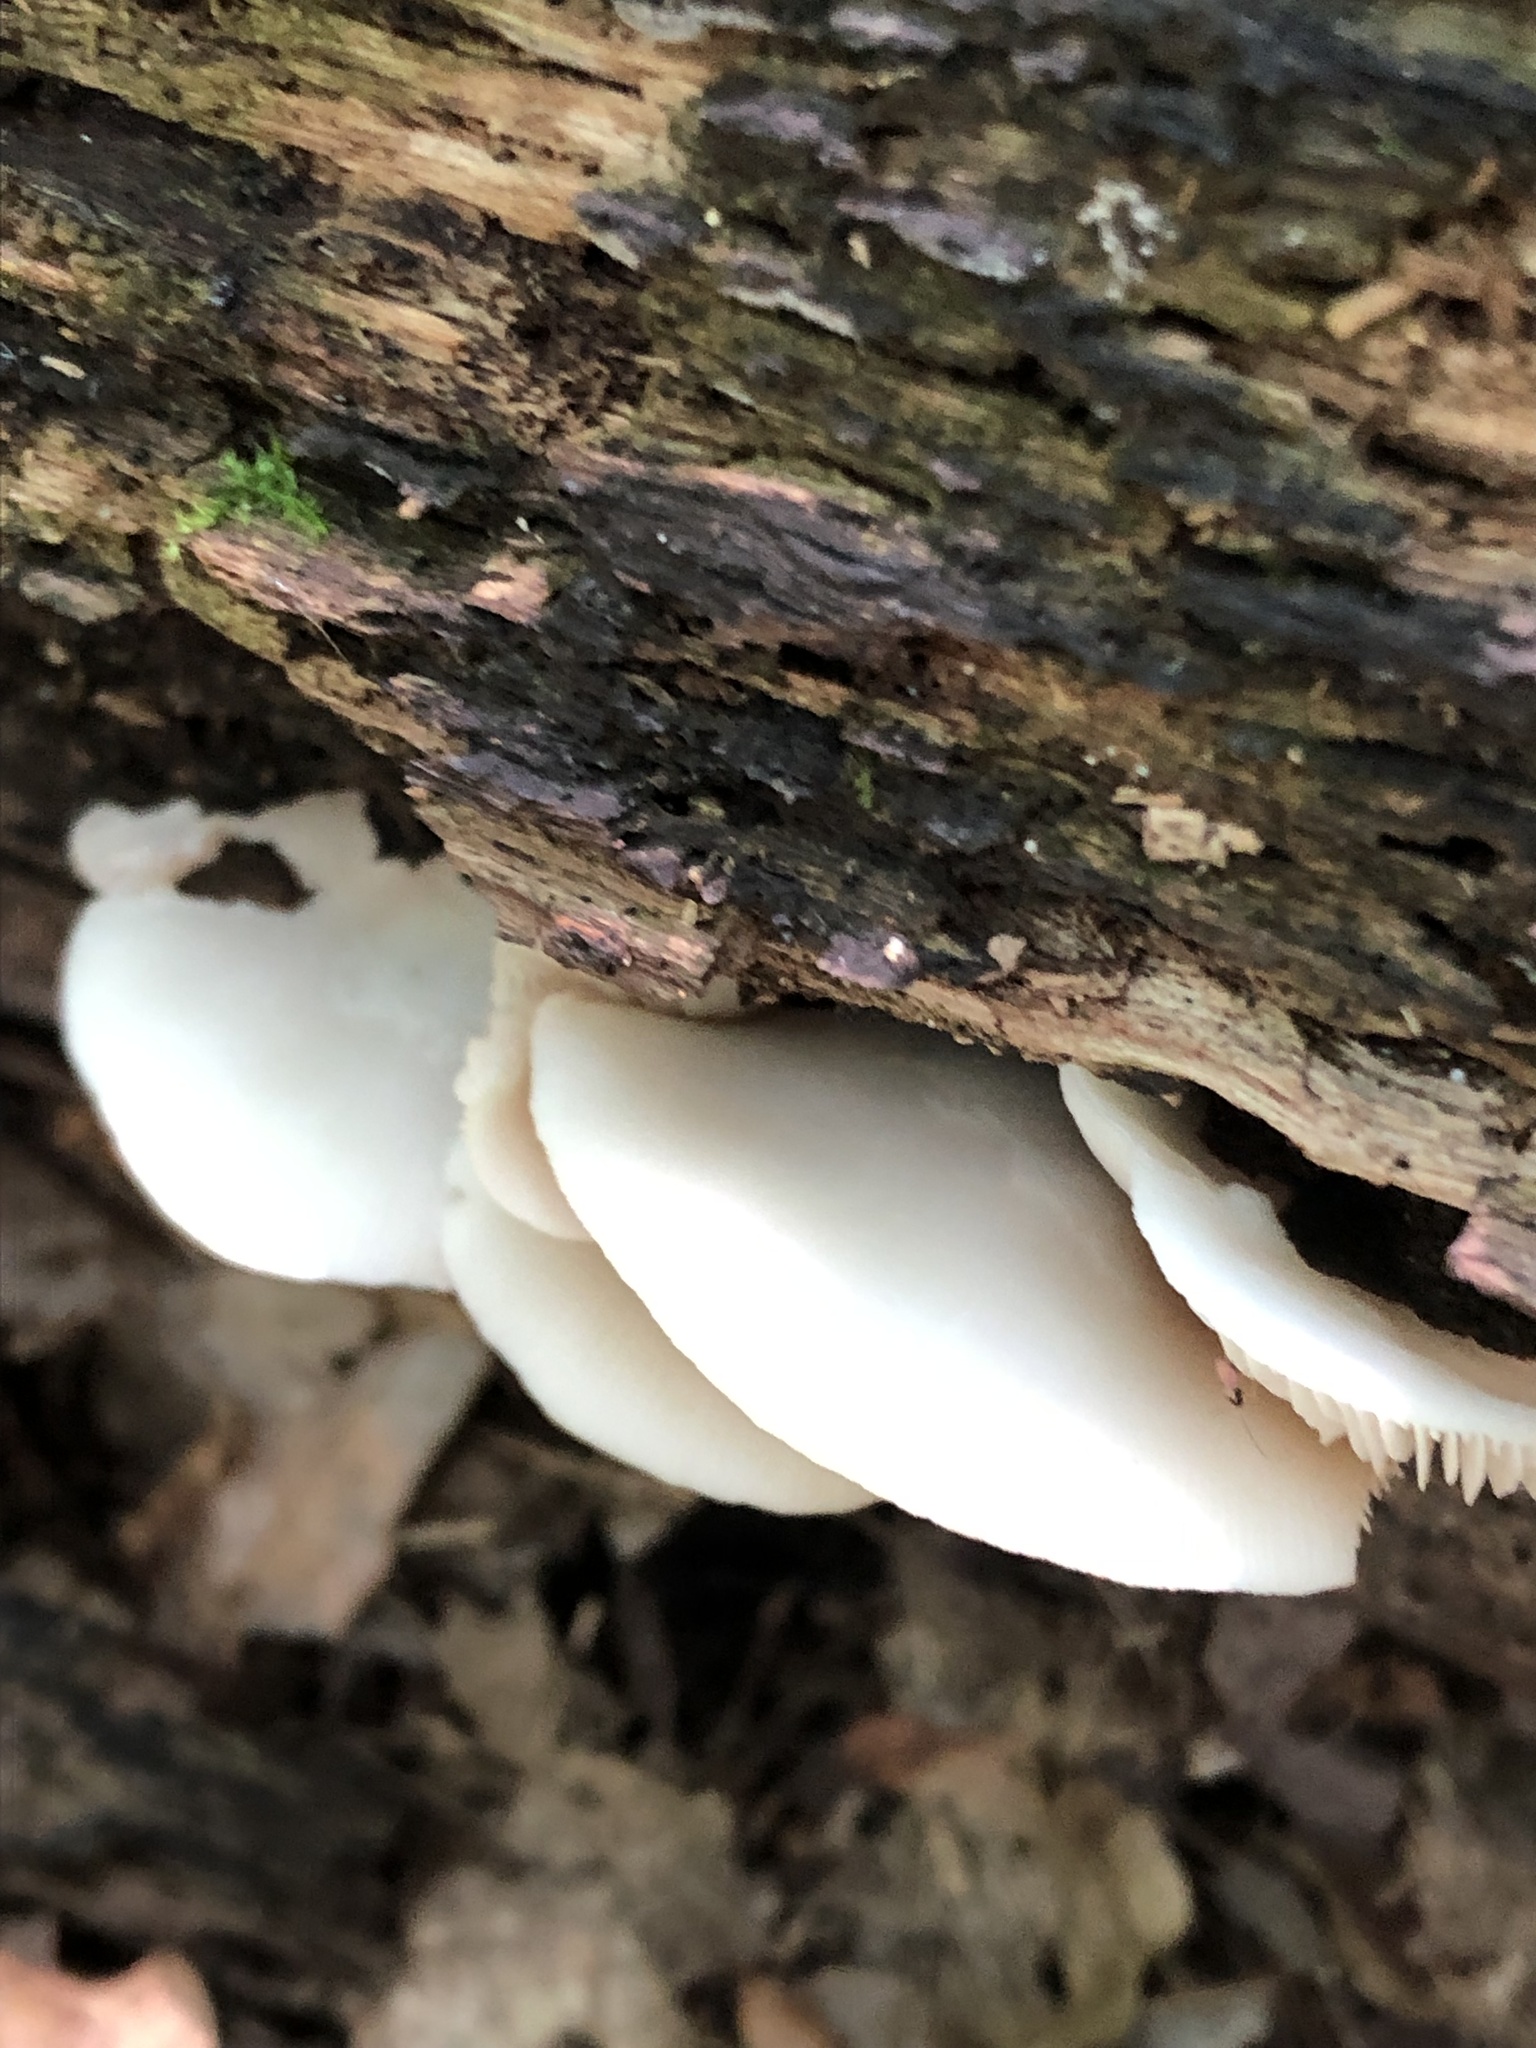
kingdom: Fungi
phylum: Basidiomycota
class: Agaricomycetes
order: Agaricales
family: Crepidotaceae
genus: Crepidotus
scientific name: Crepidotus applanatus
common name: Flat crep
